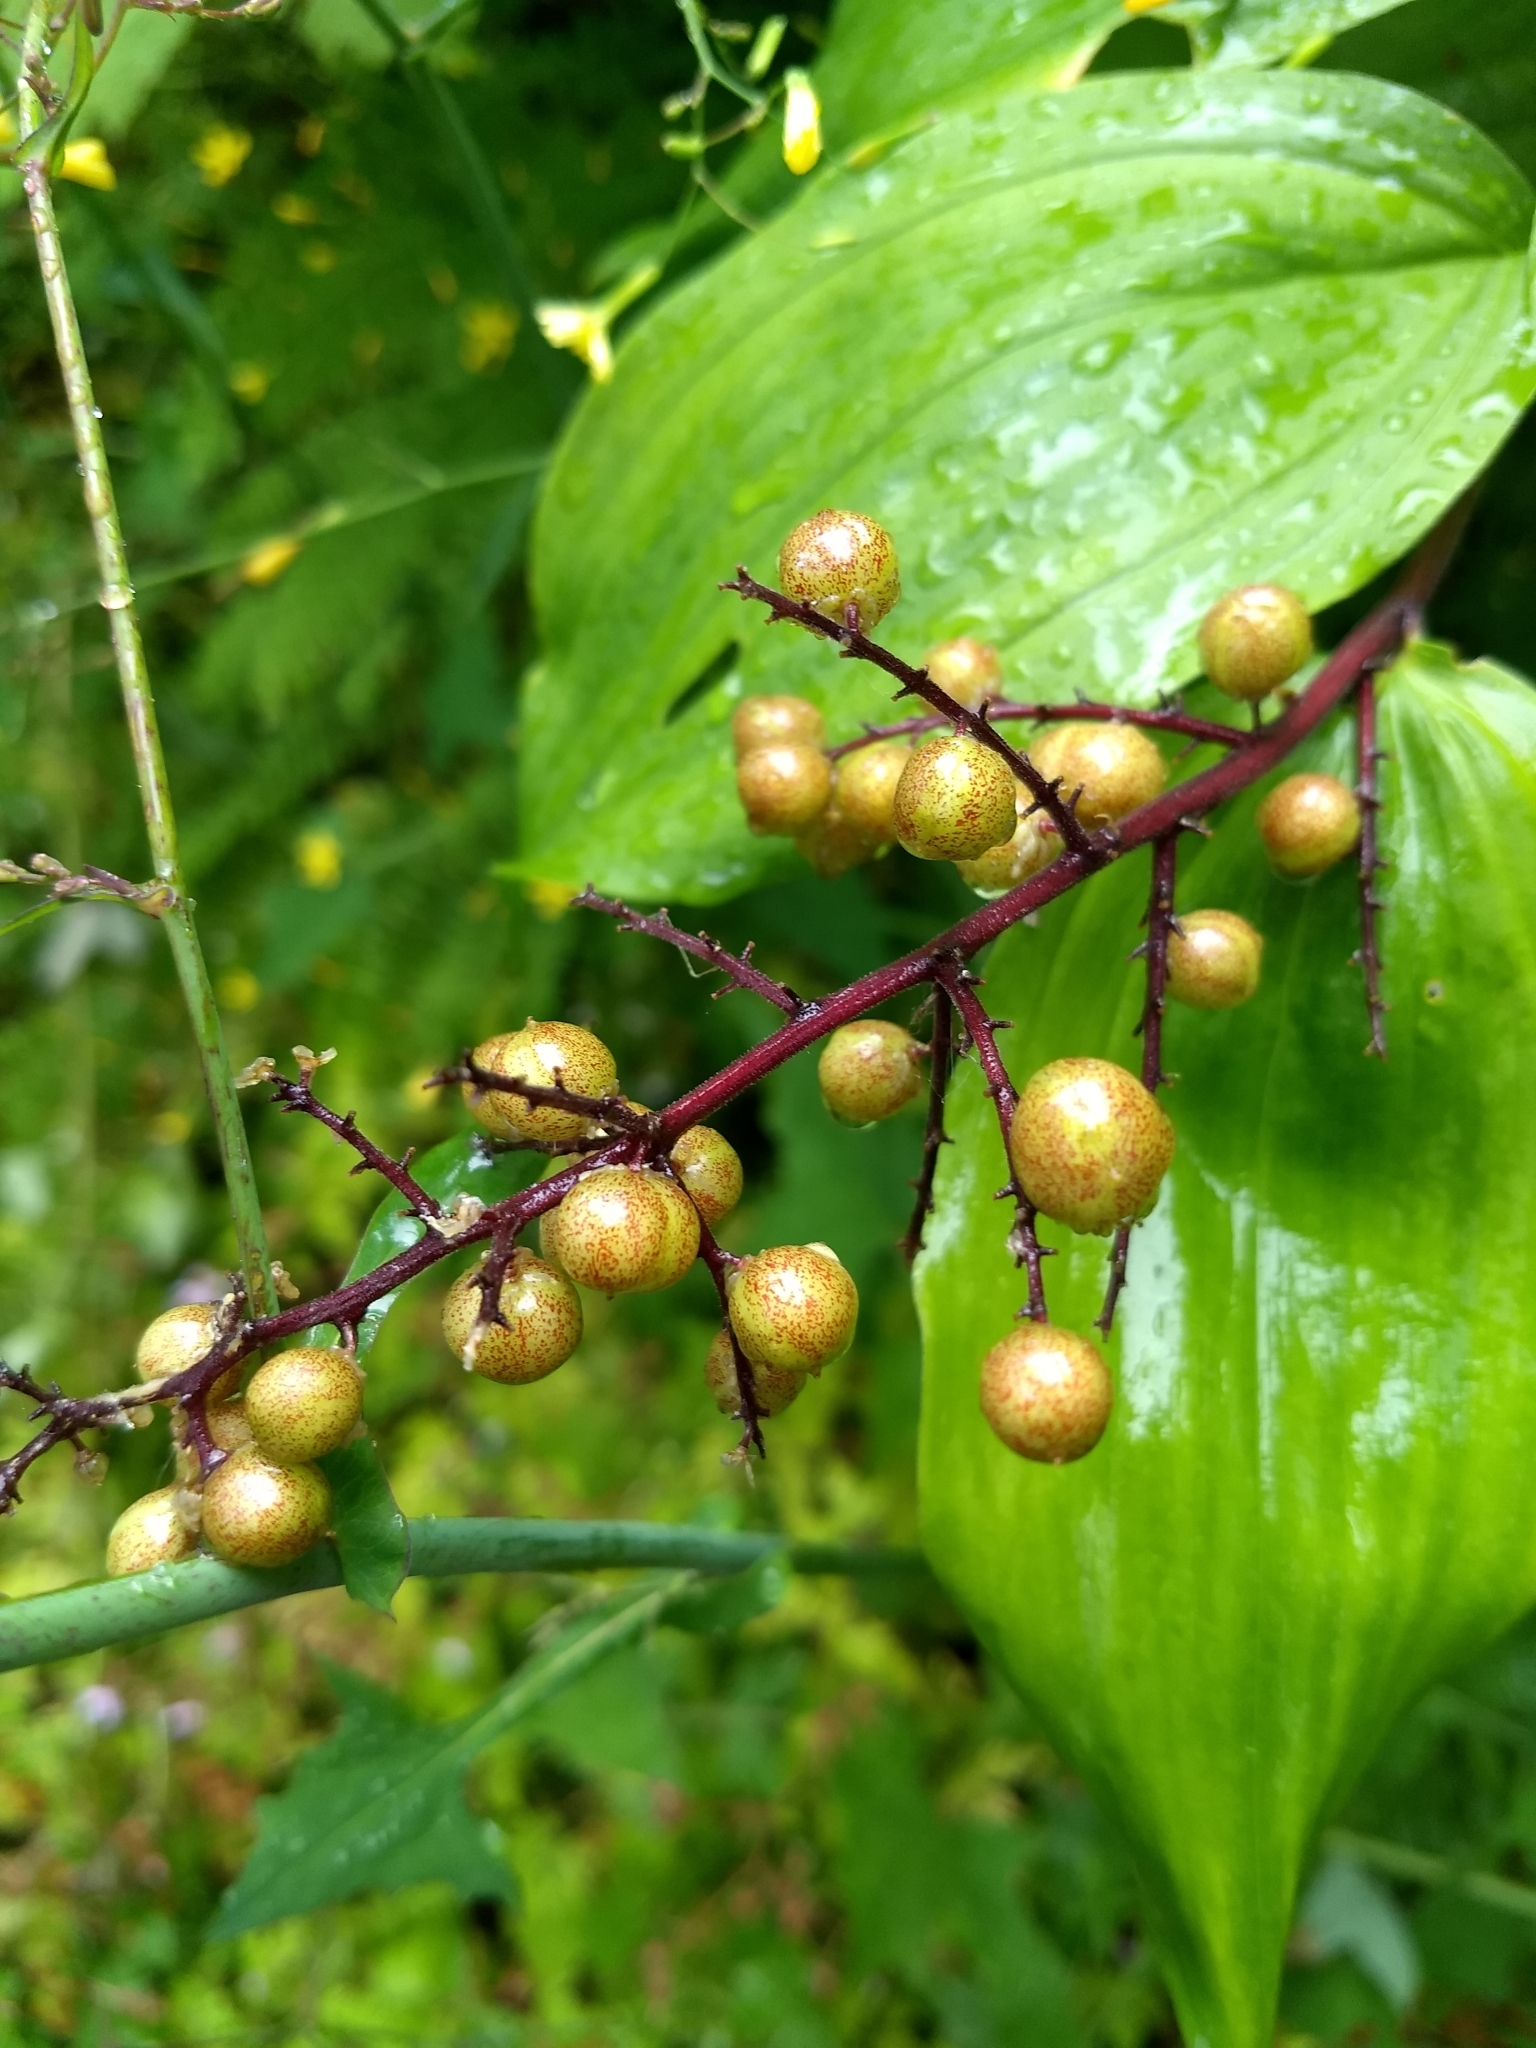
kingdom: Plantae
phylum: Tracheophyta
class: Liliopsida
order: Asparagales
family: Asparagaceae
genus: Maianthemum
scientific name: Maianthemum racemosum
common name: False spikenard
